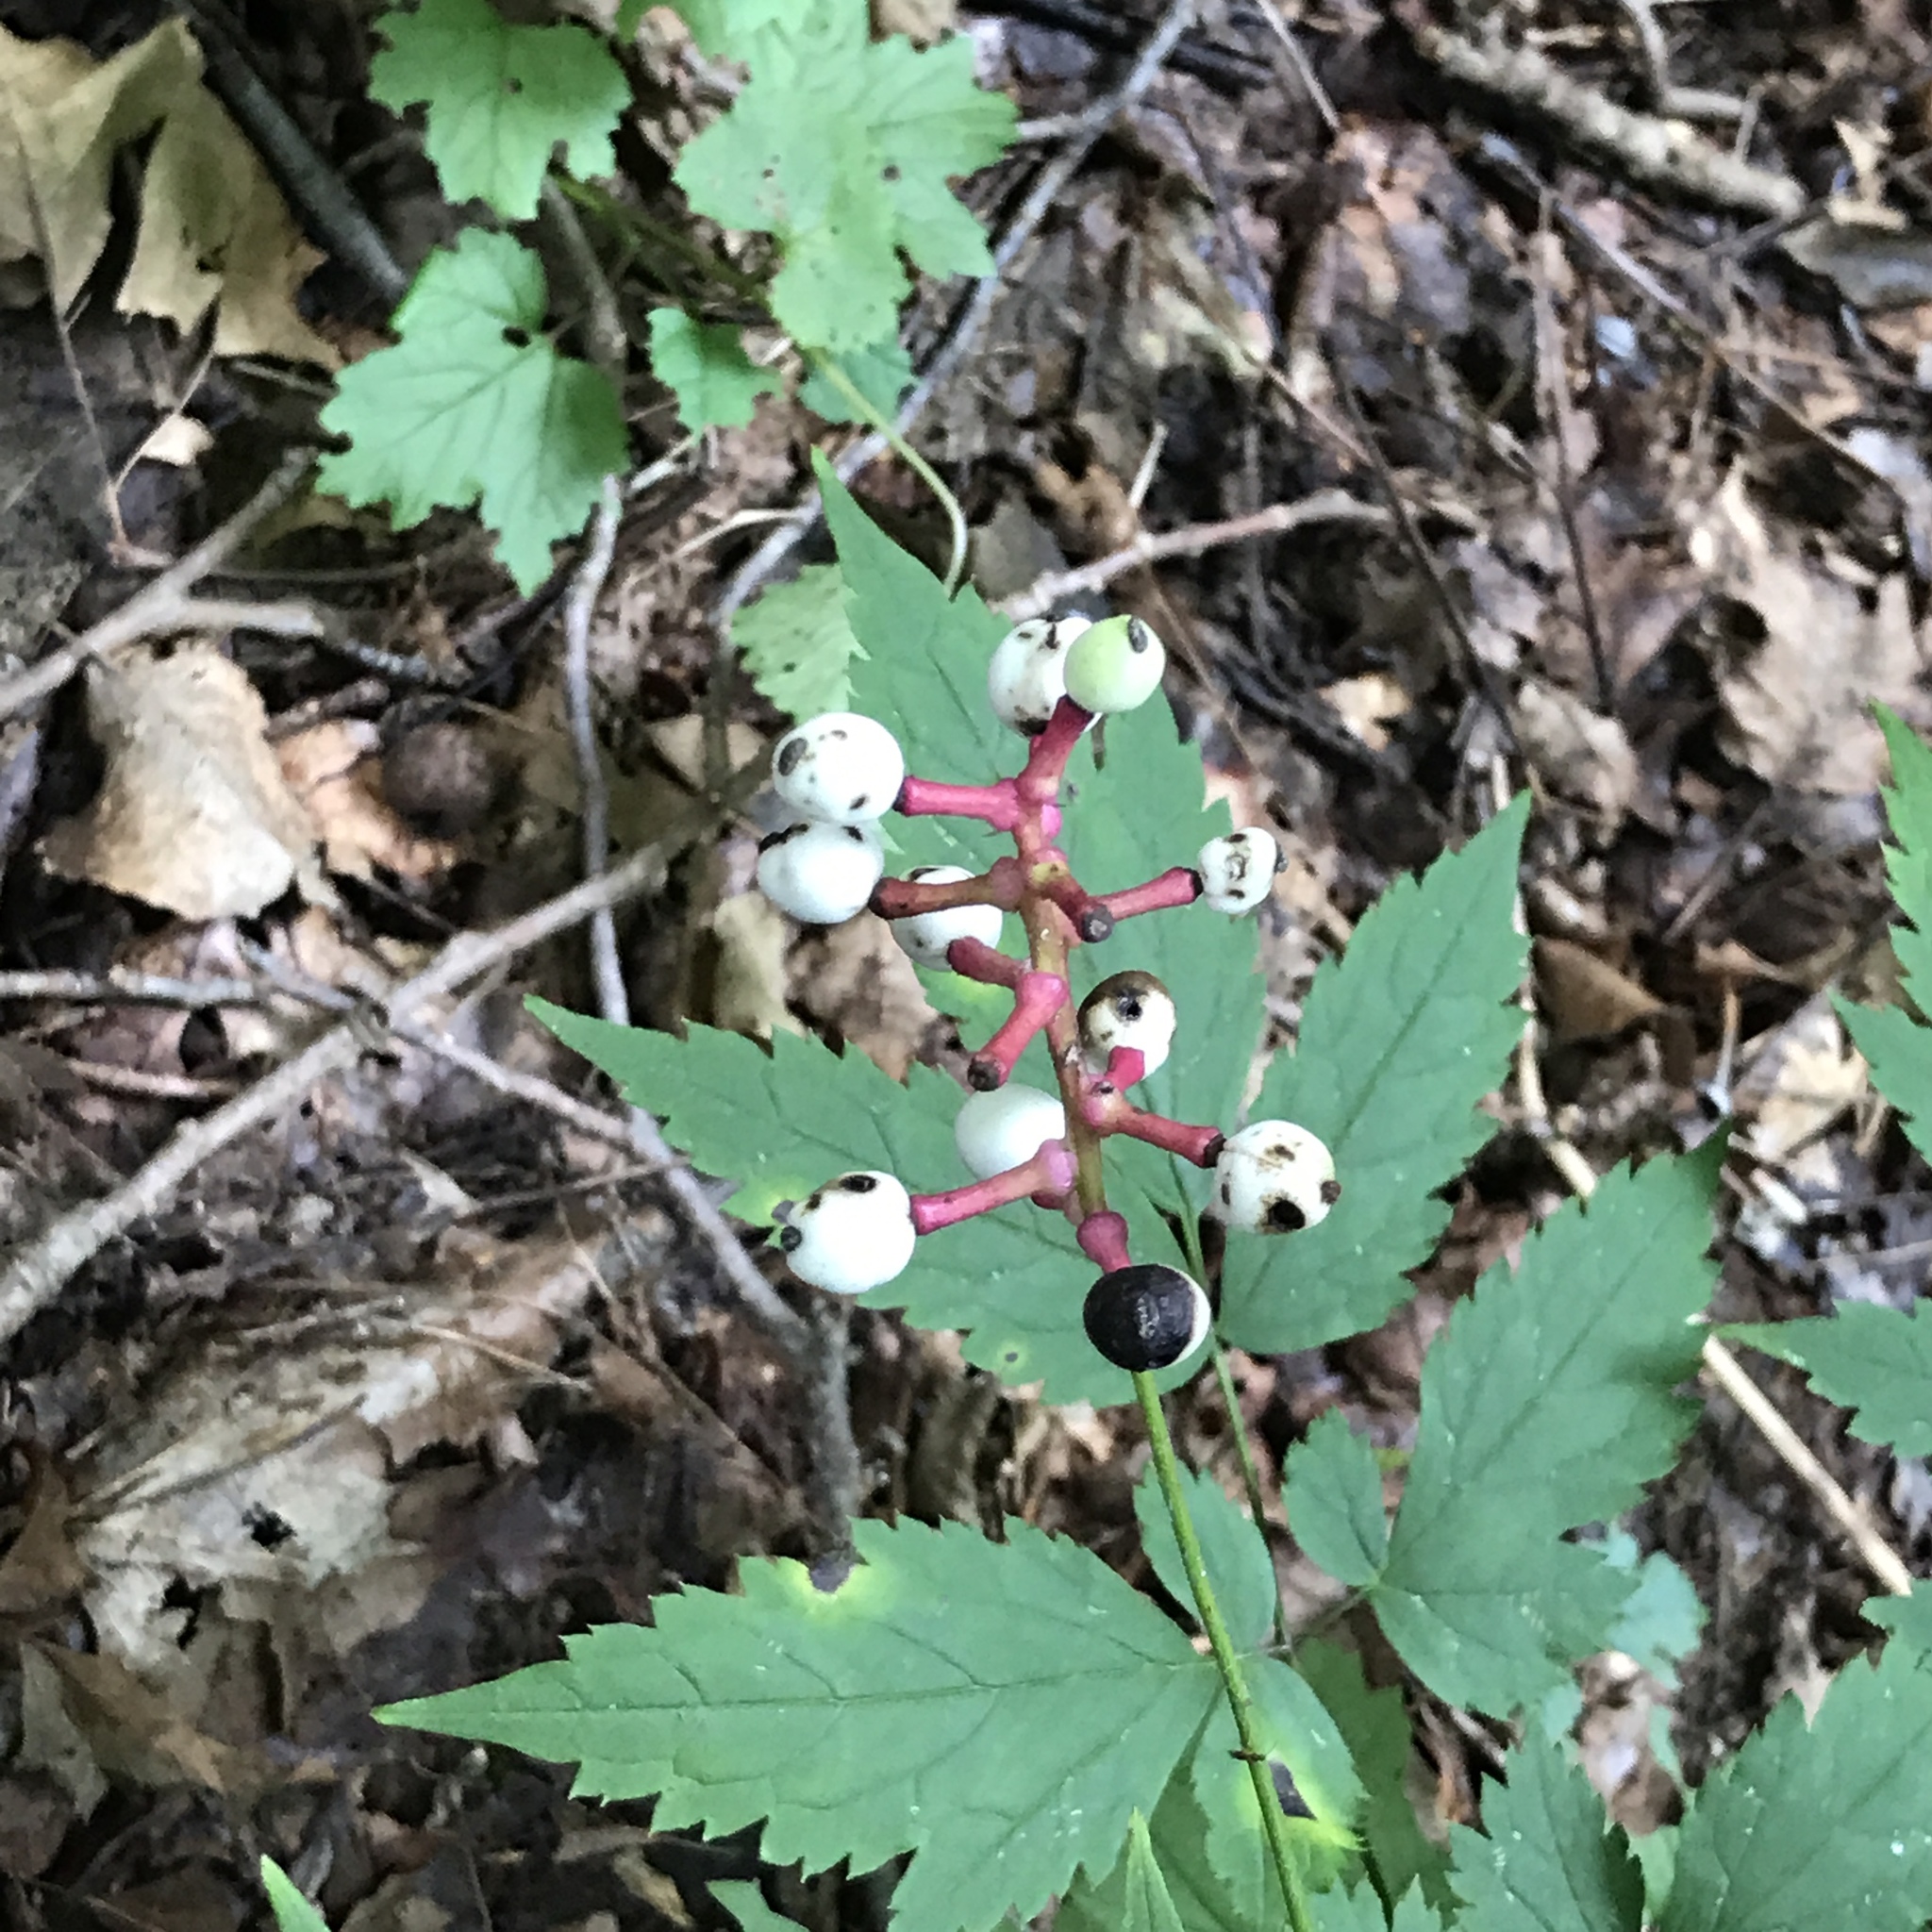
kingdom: Plantae
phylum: Tracheophyta
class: Magnoliopsida
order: Ranunculales
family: Ranunculaceae
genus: Actaea
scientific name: Actaea pachypoda
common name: Doll's-eyes
